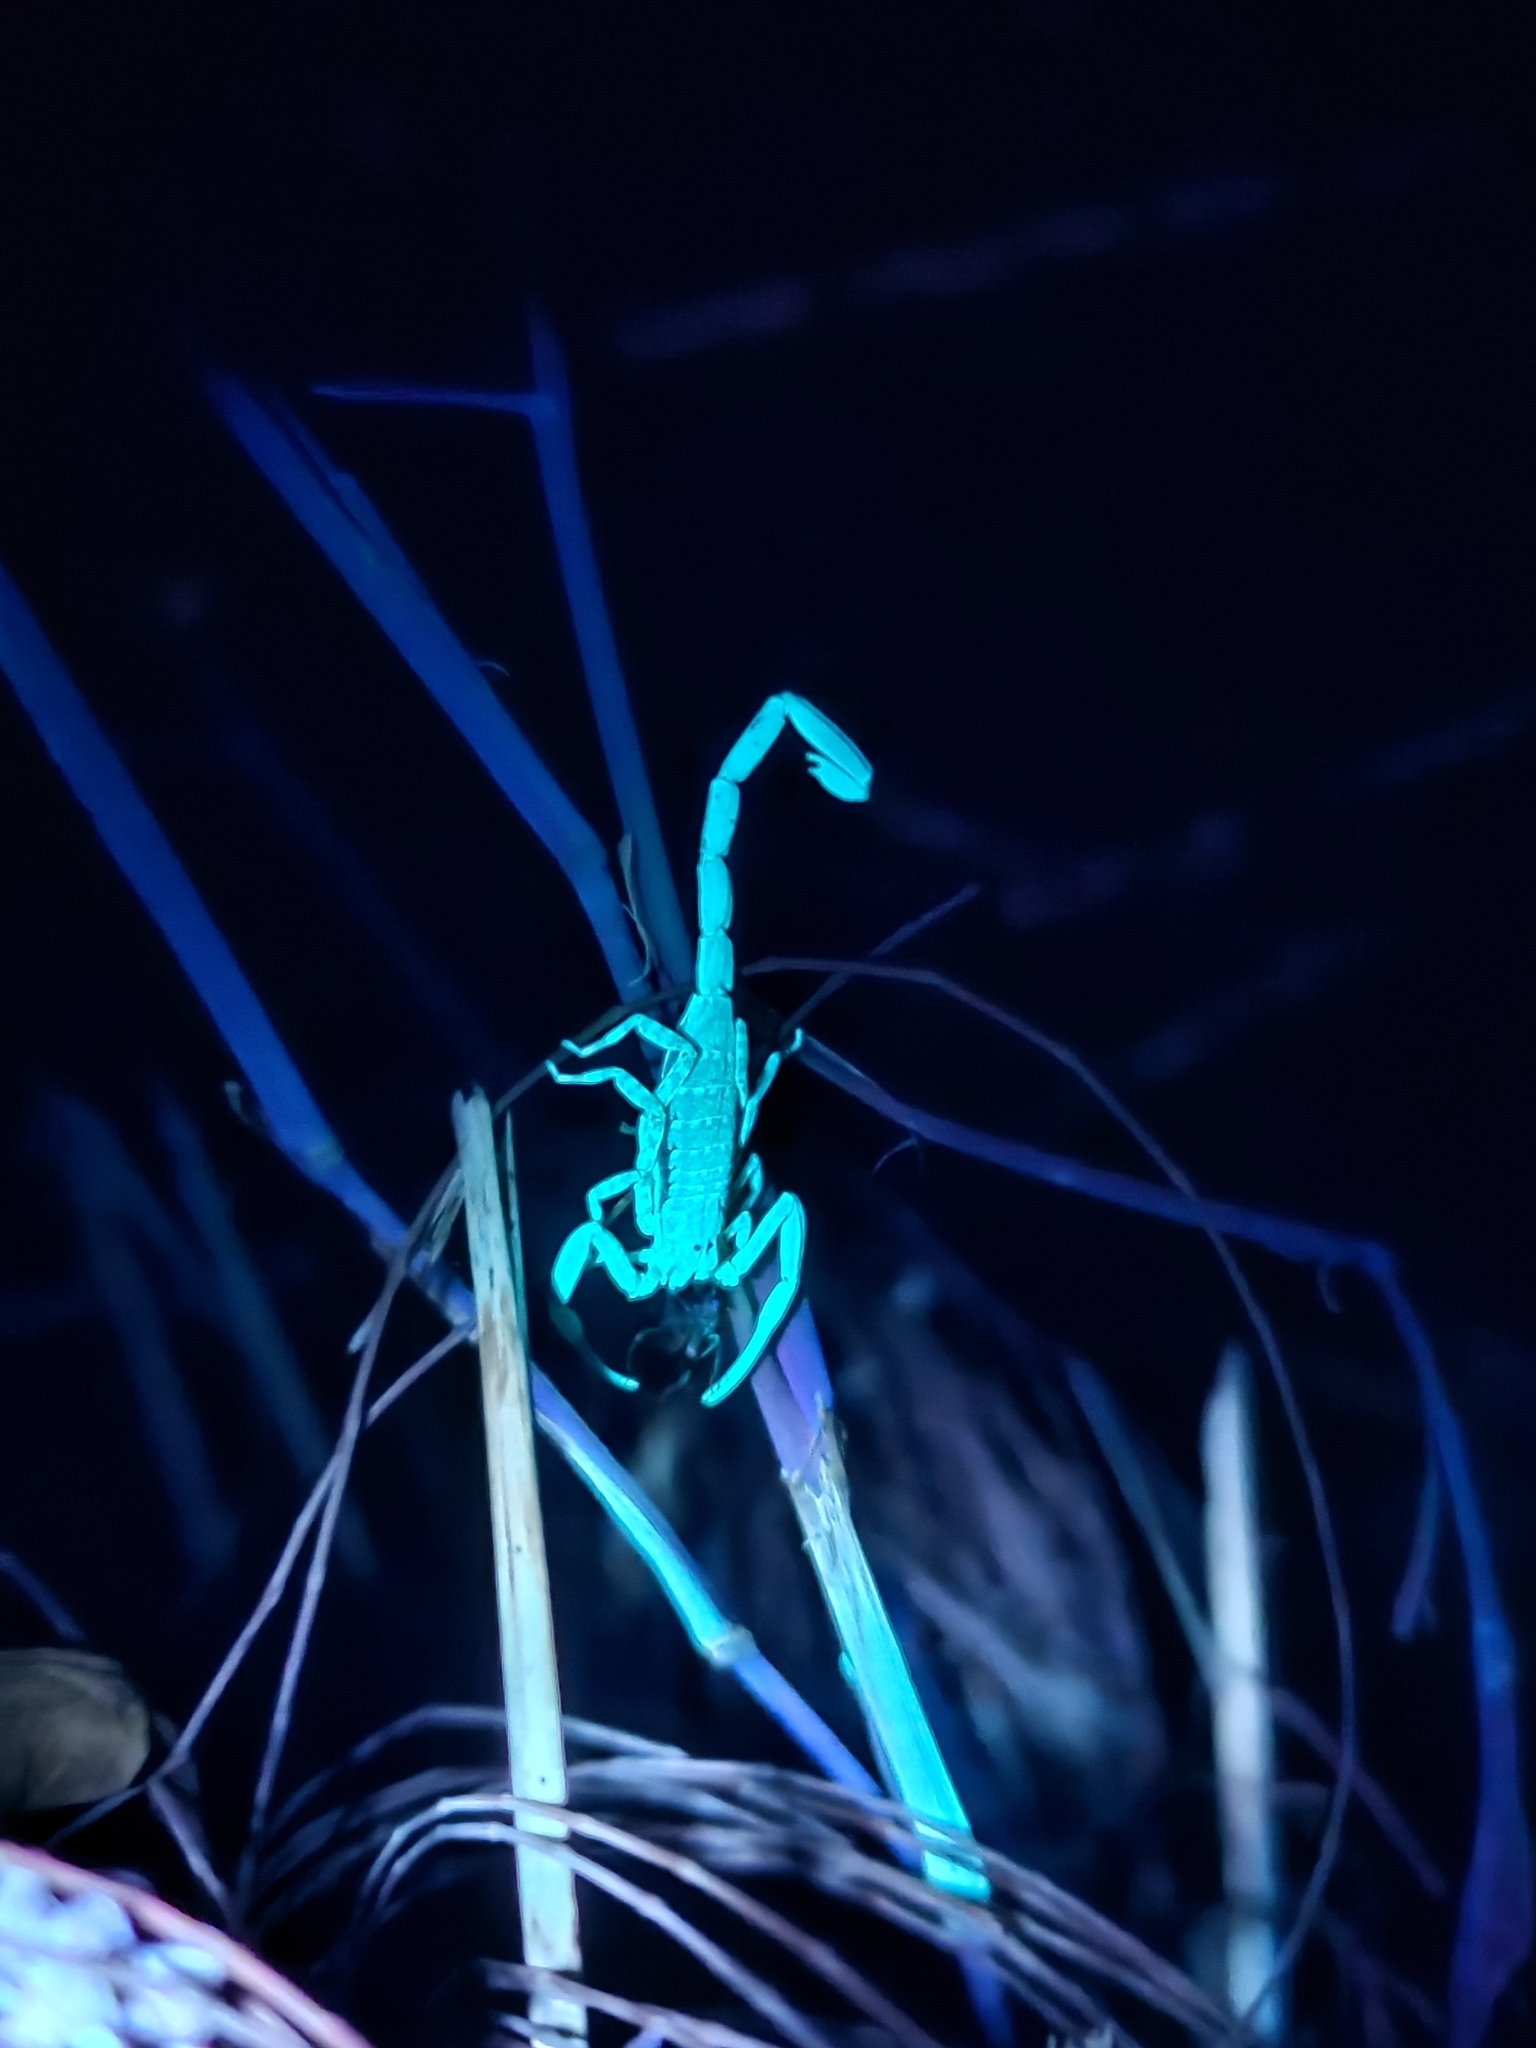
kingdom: Animalia
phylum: Arthropoda
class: Arachnida
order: Scorpiones
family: Buthidae
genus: Isometrus
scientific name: Isometrus maculatus
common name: Scorpions
